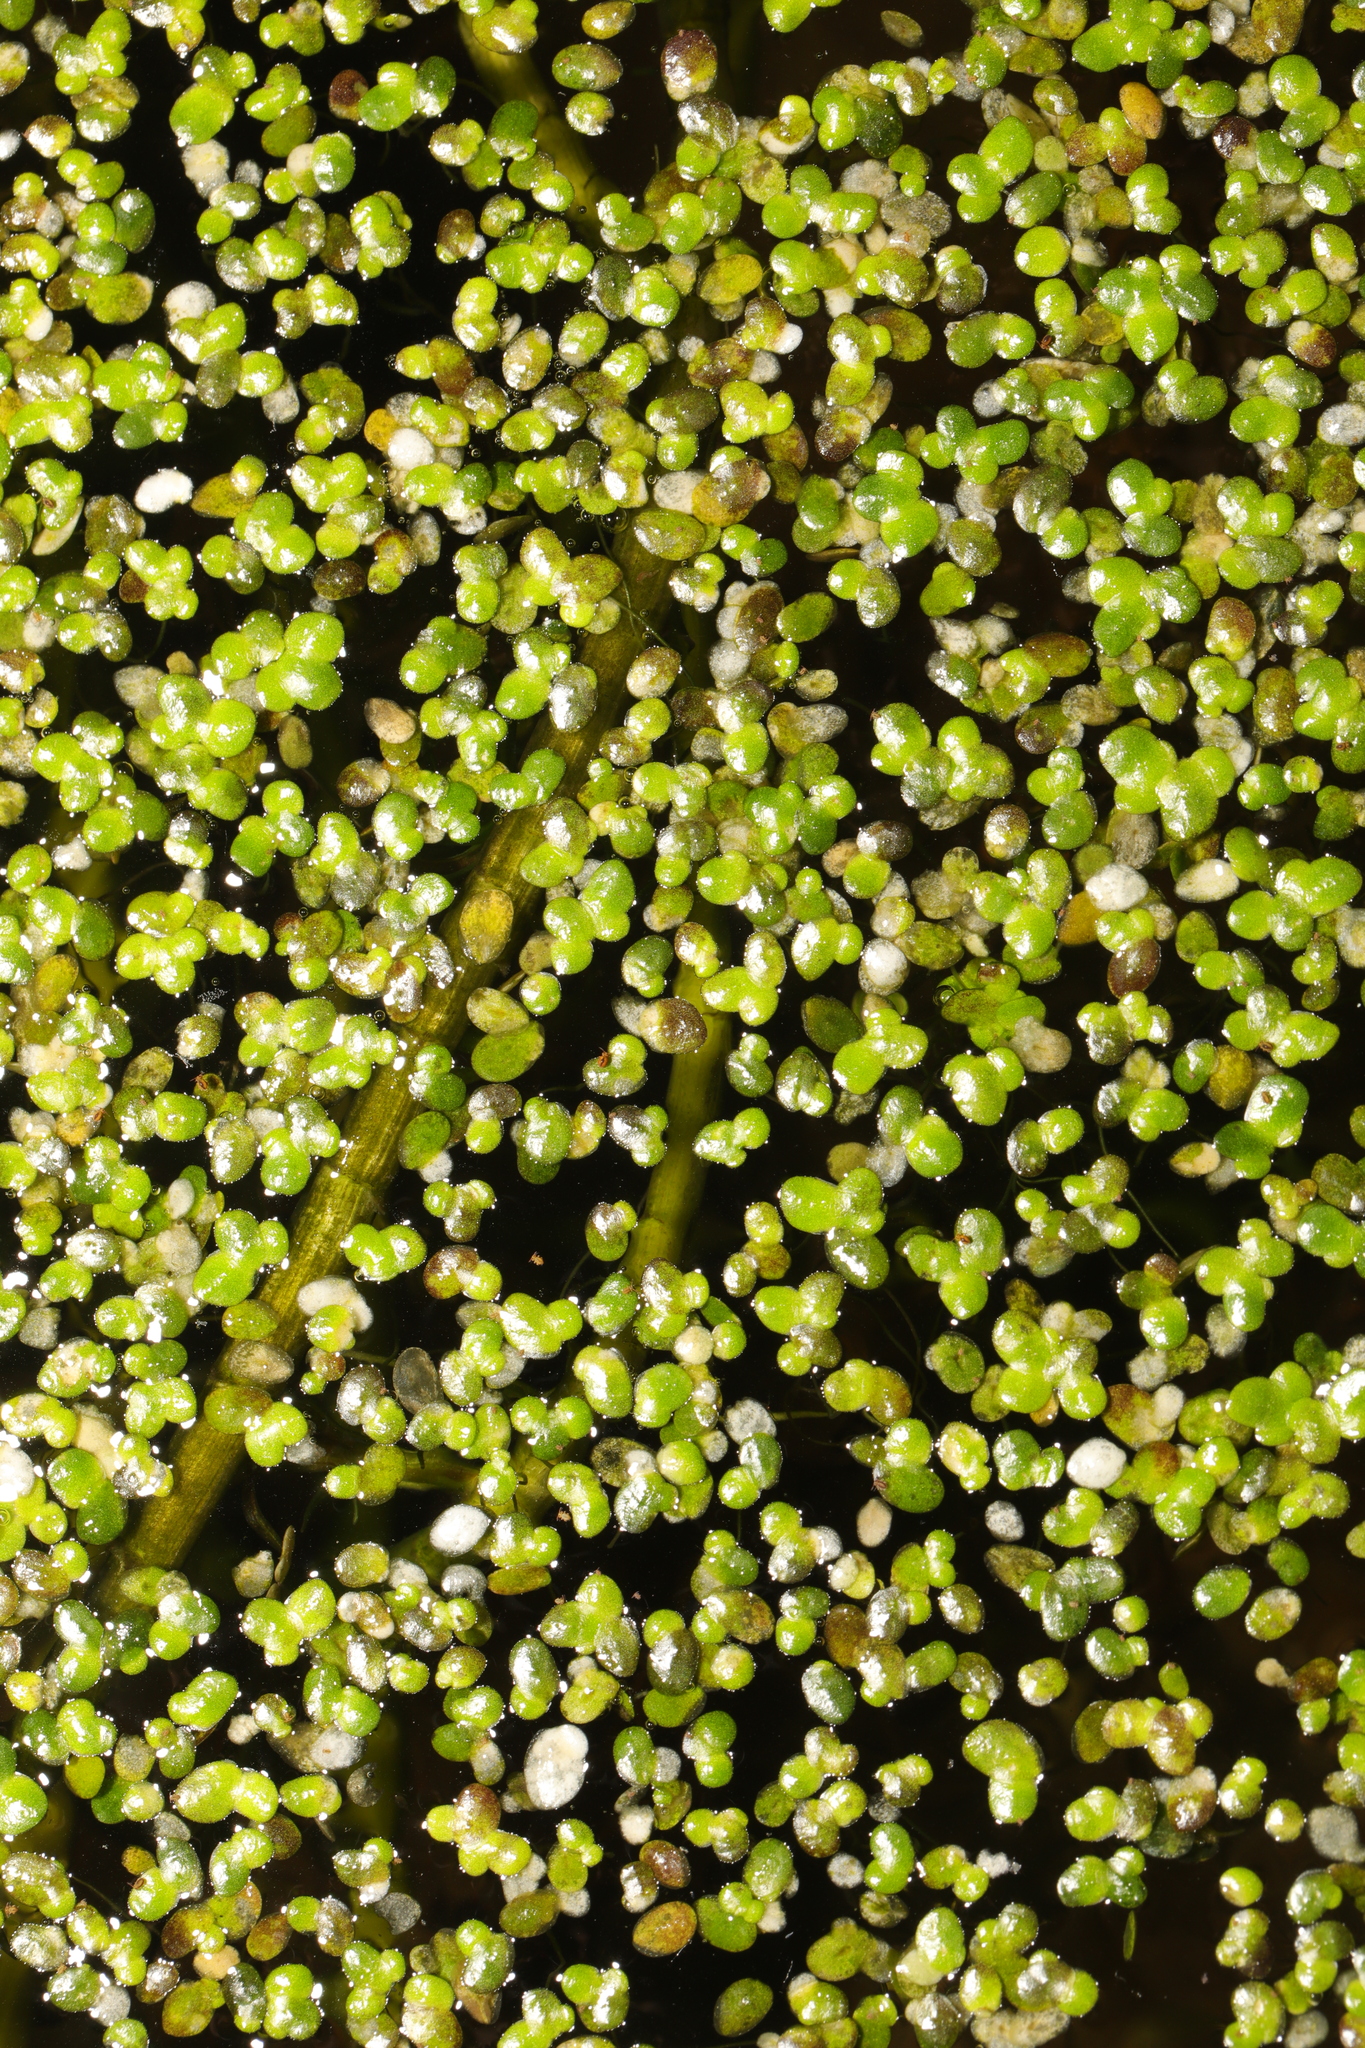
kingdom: Plantae
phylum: Tracheophyta
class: Liliopsida
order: Alismatales
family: Araceae
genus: Lemna
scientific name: Lemna minor
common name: Common duckweed
